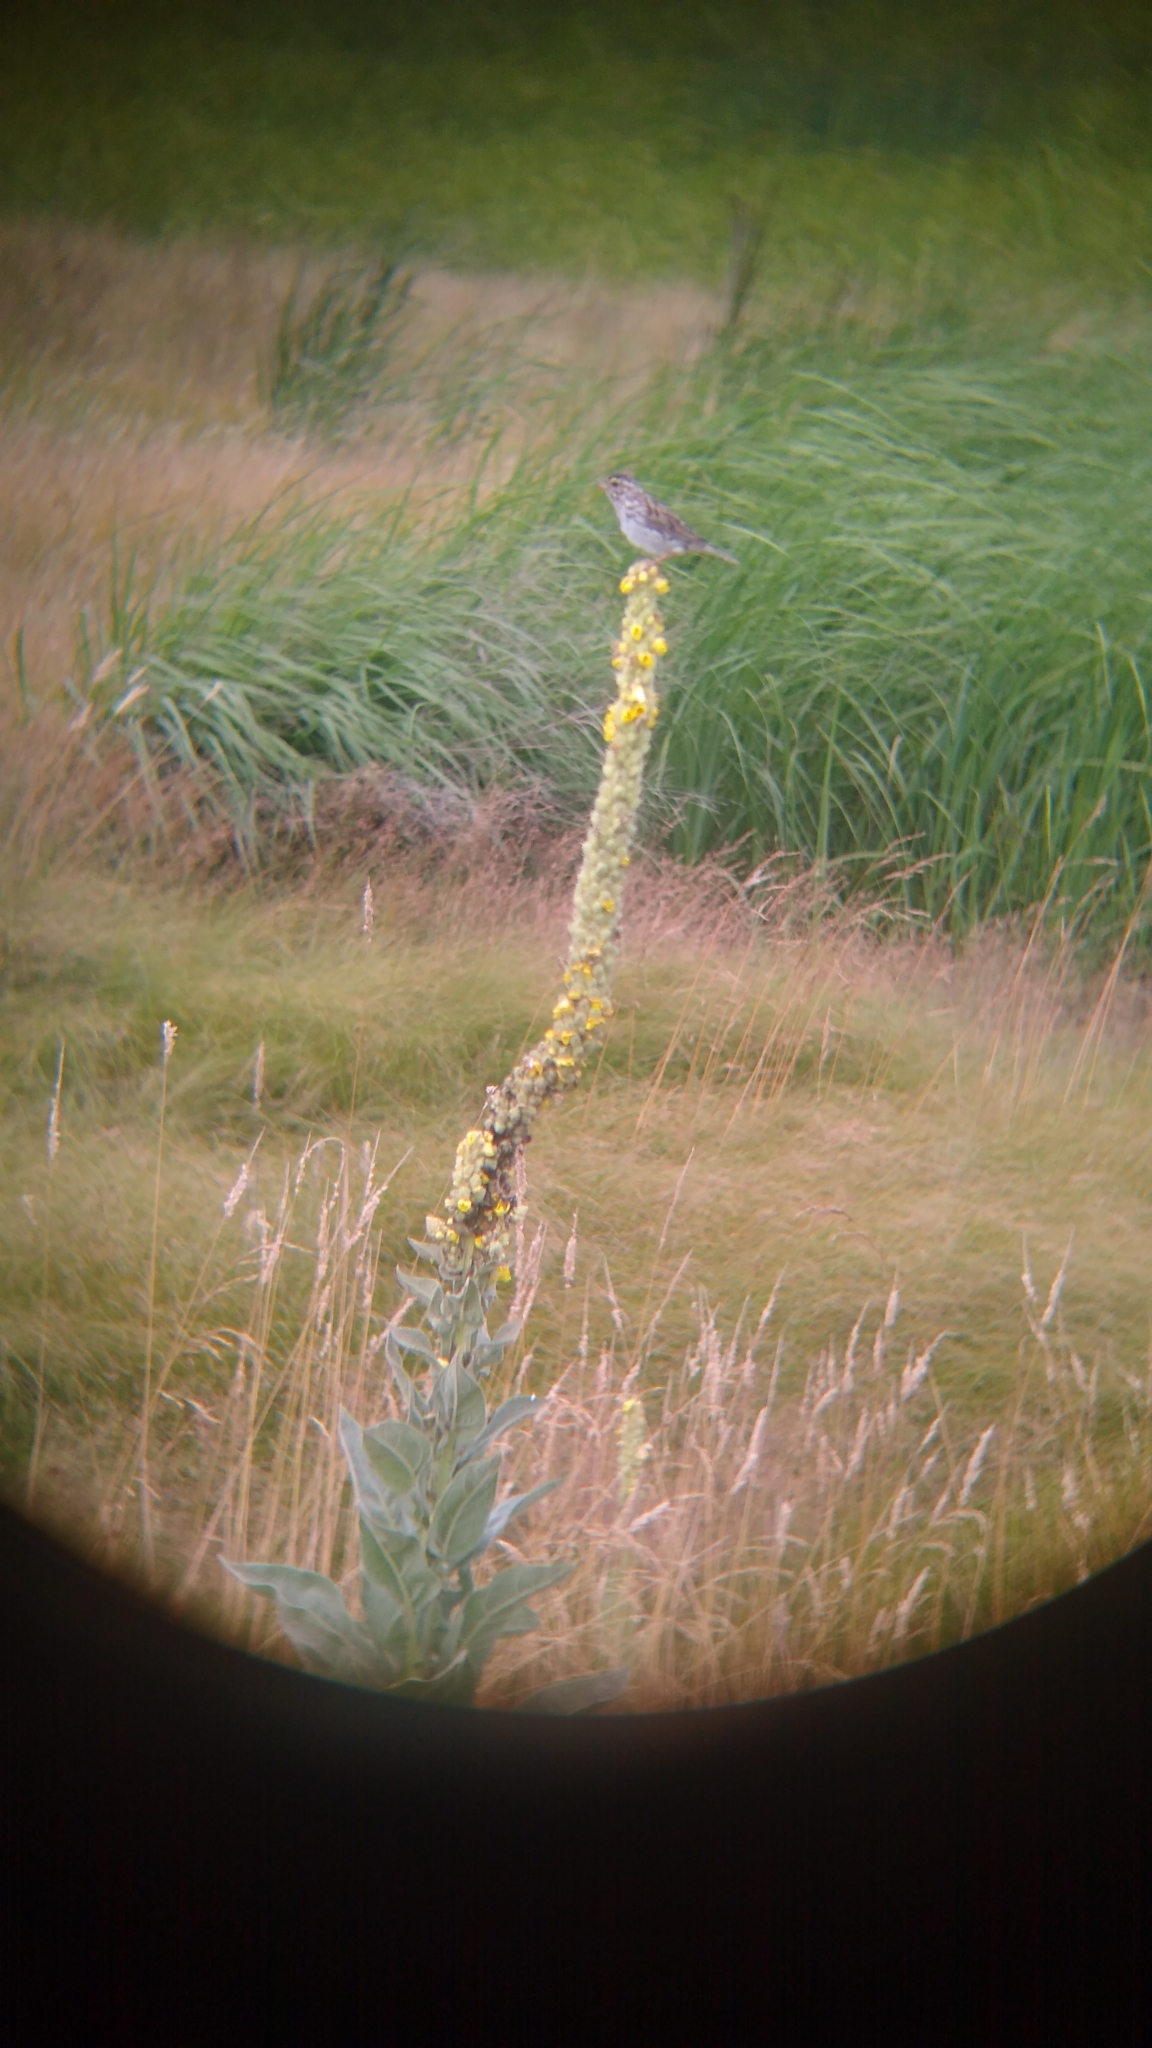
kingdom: Animalia
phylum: Chordata
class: Aves
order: Passeriformes
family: Passerellidae
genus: Passerculus
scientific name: Passerculus sandwichensis
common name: Savannah sparrow
